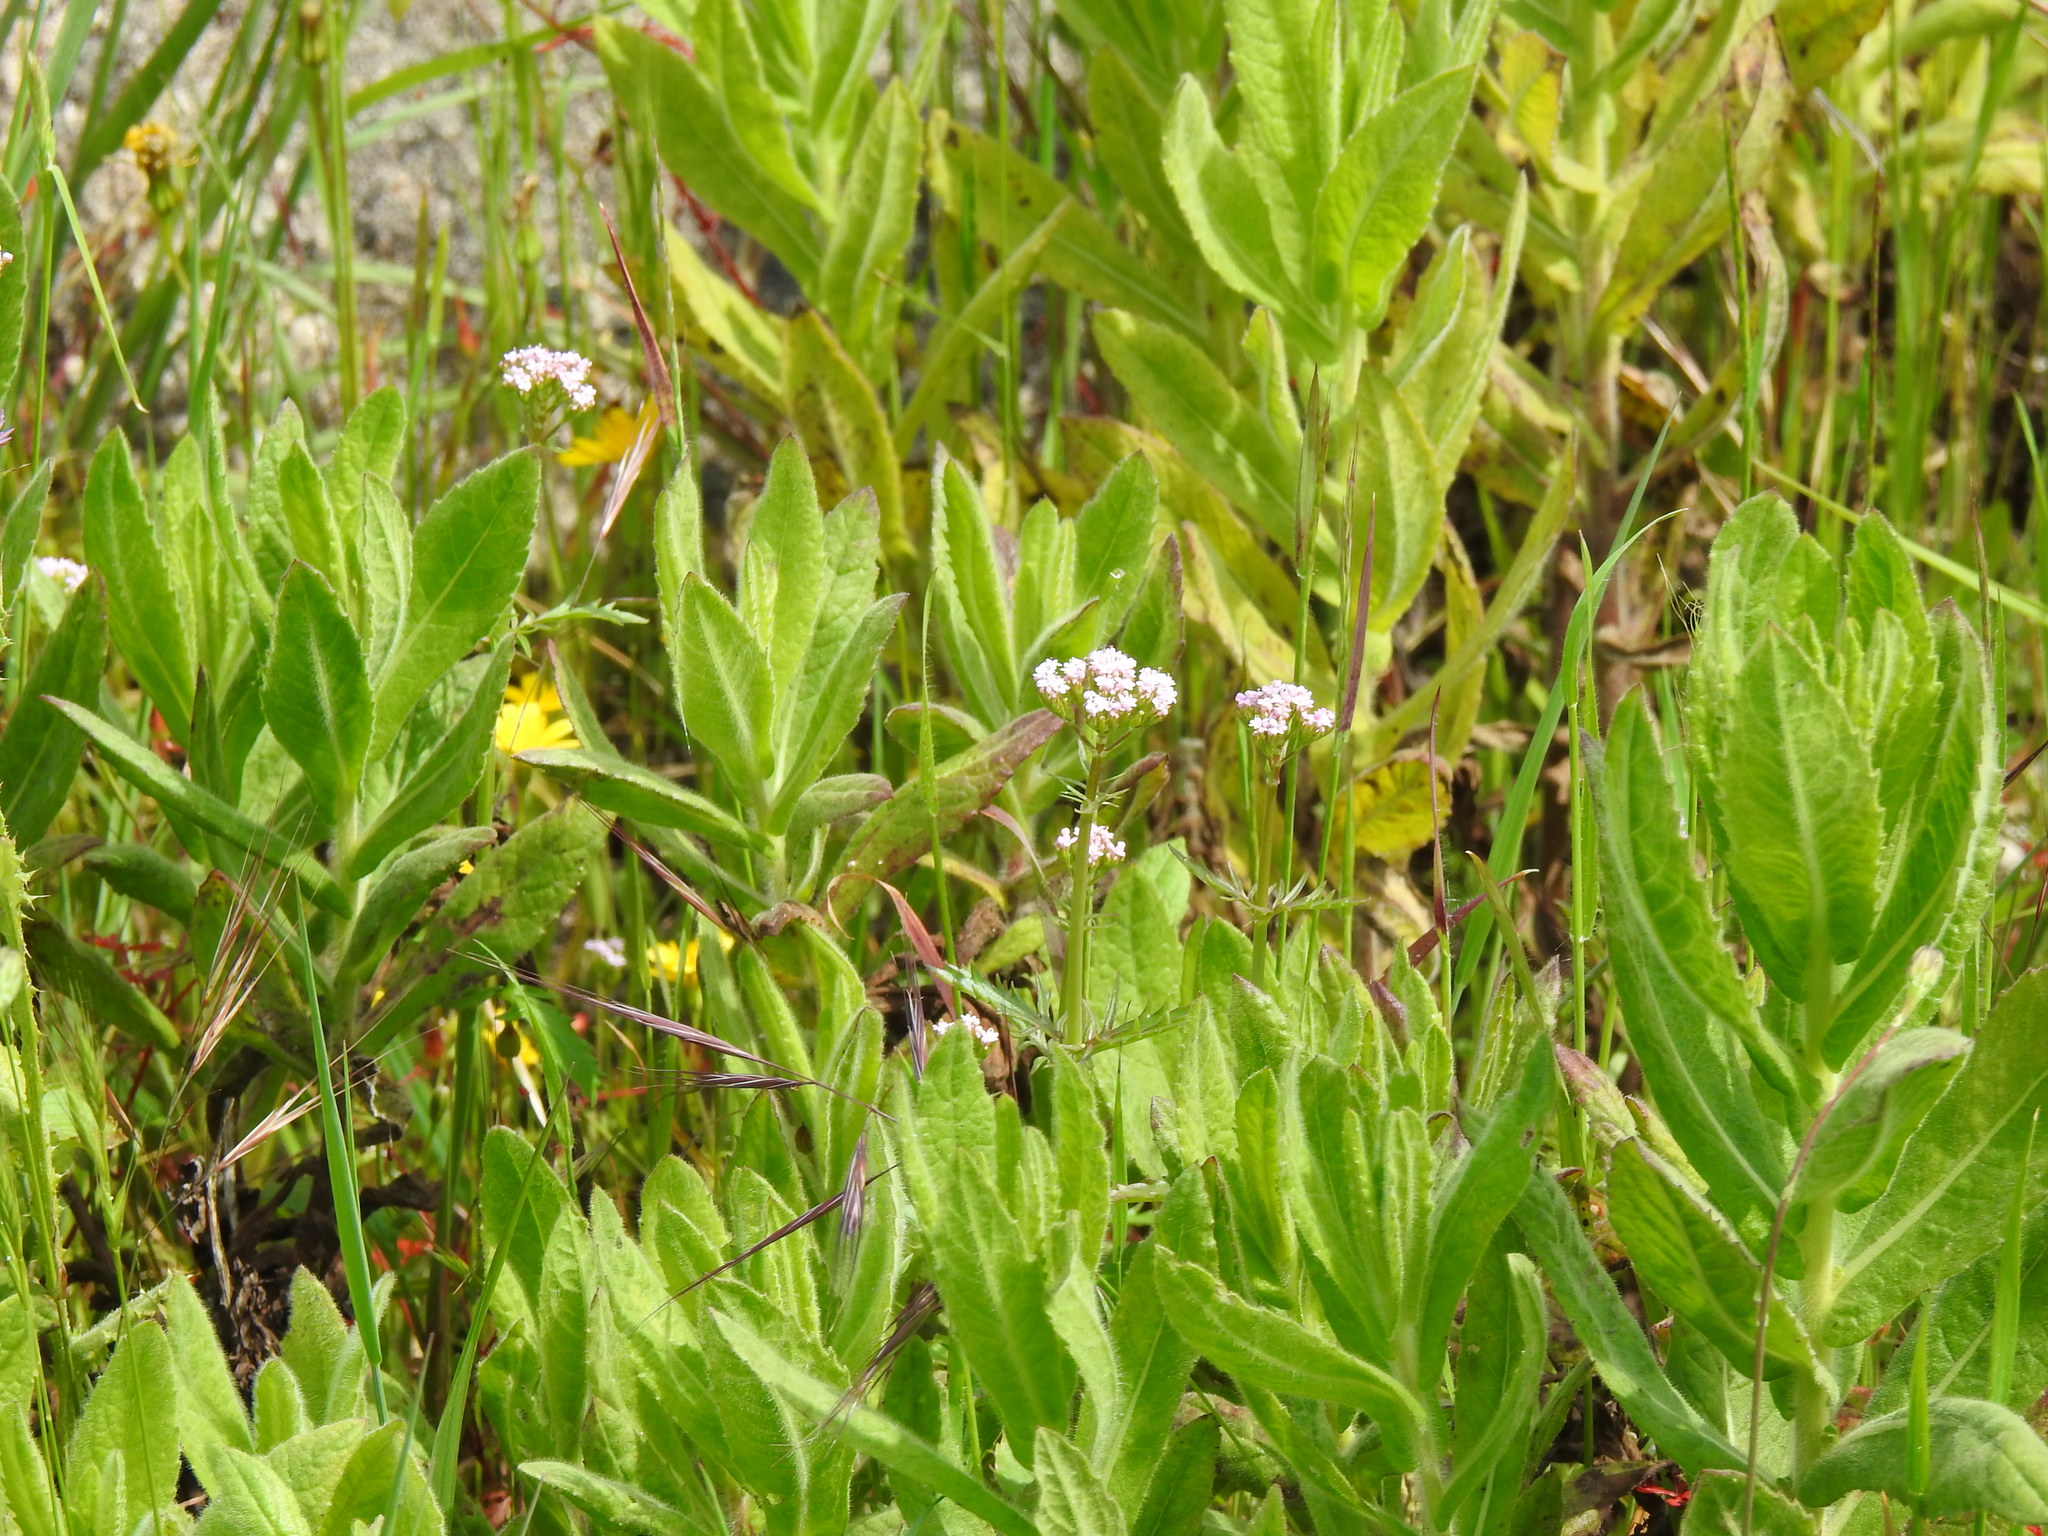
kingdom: Plantae
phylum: Tracheophyta
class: Magnoliopsida
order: Dipsacales
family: Caprifoliaceae
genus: Centranthus
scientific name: Centranthus calcitrapae
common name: Annual valerian
